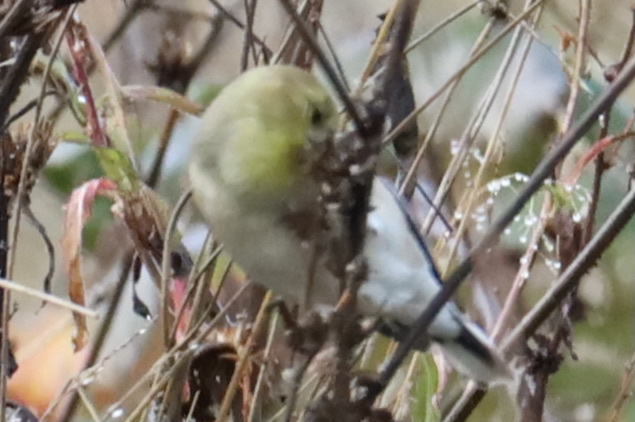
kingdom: Animalia
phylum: Chordata
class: Aves
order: Passeriformes
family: Fringillidae
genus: Spinus
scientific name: Spinus tristis
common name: American goldfinch
